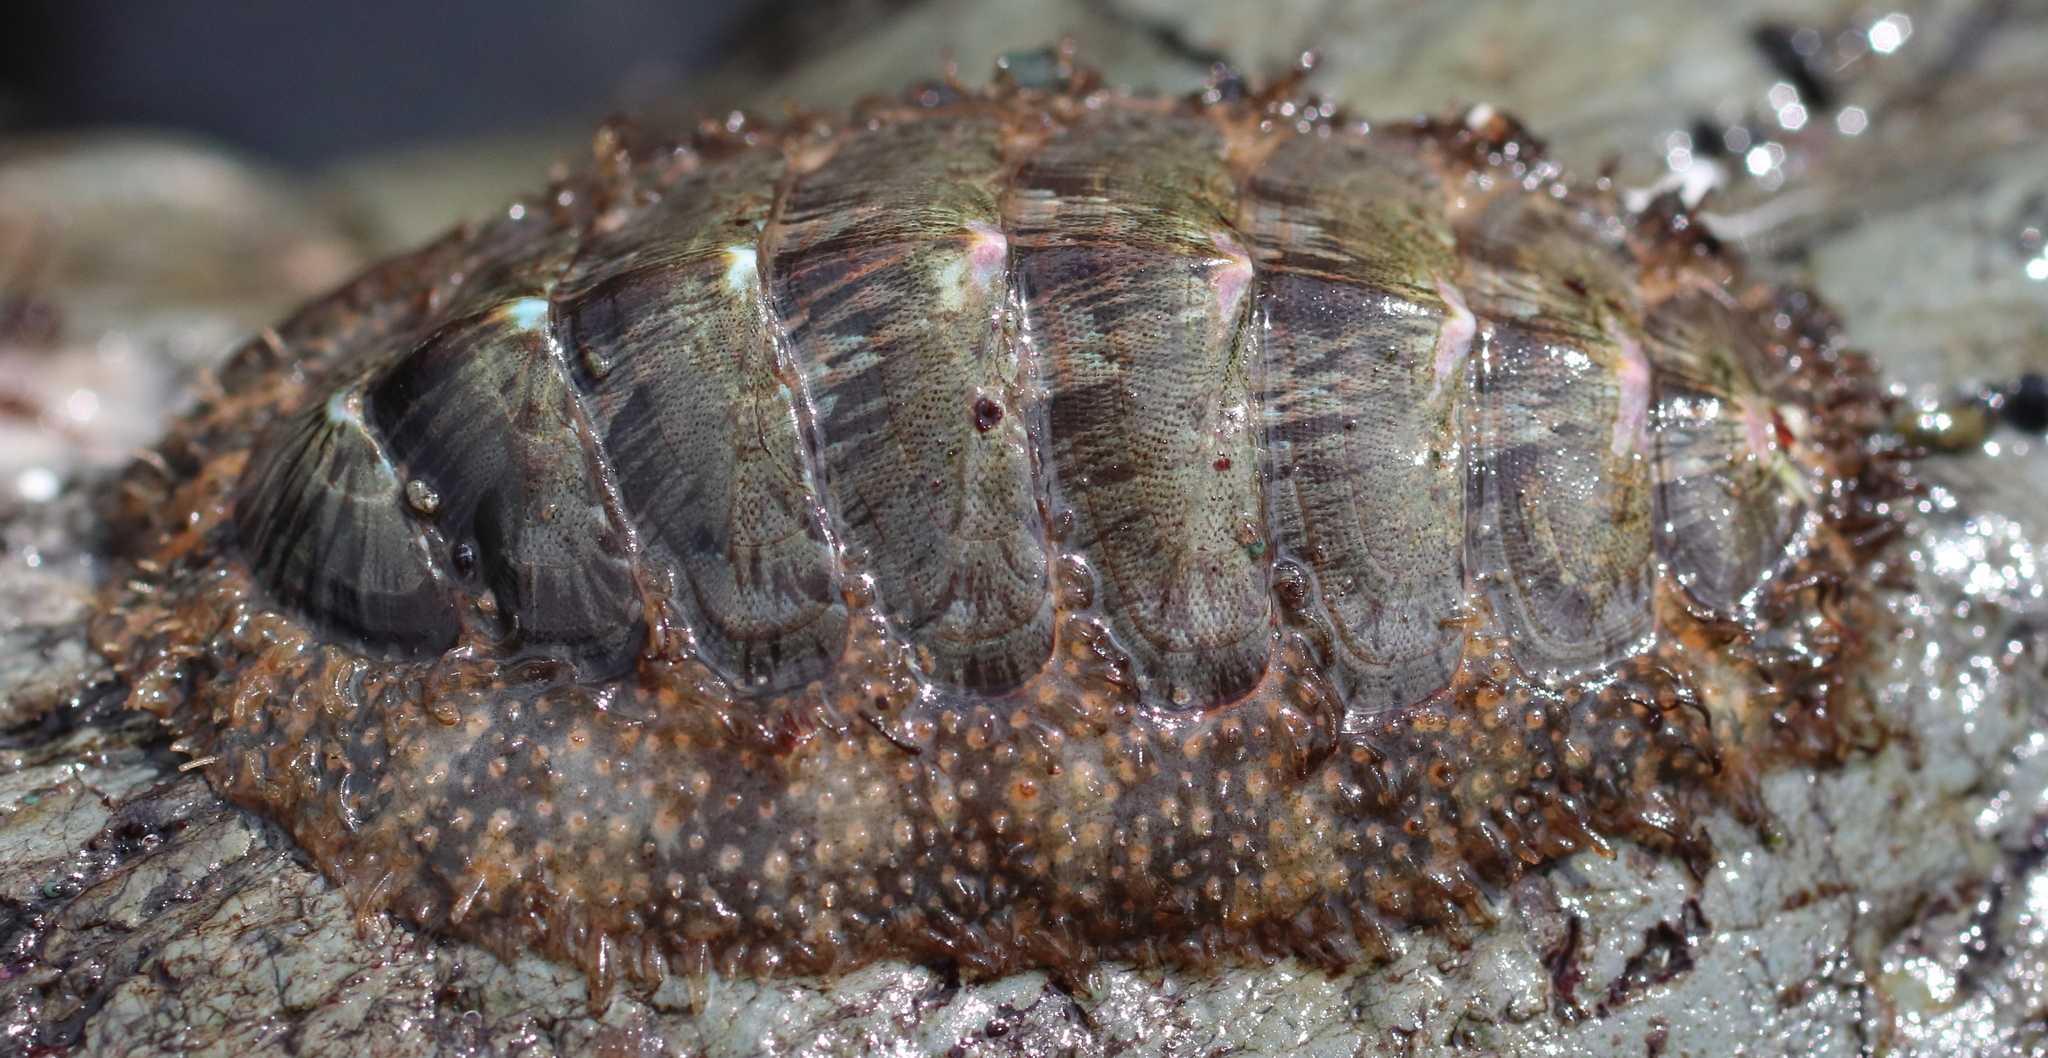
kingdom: Animalia
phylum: Mollusca
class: Polyplacophora
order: Chitonida
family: Mopaliidae
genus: Mopalia
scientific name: Mopalia lignosa
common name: Woody chiton
